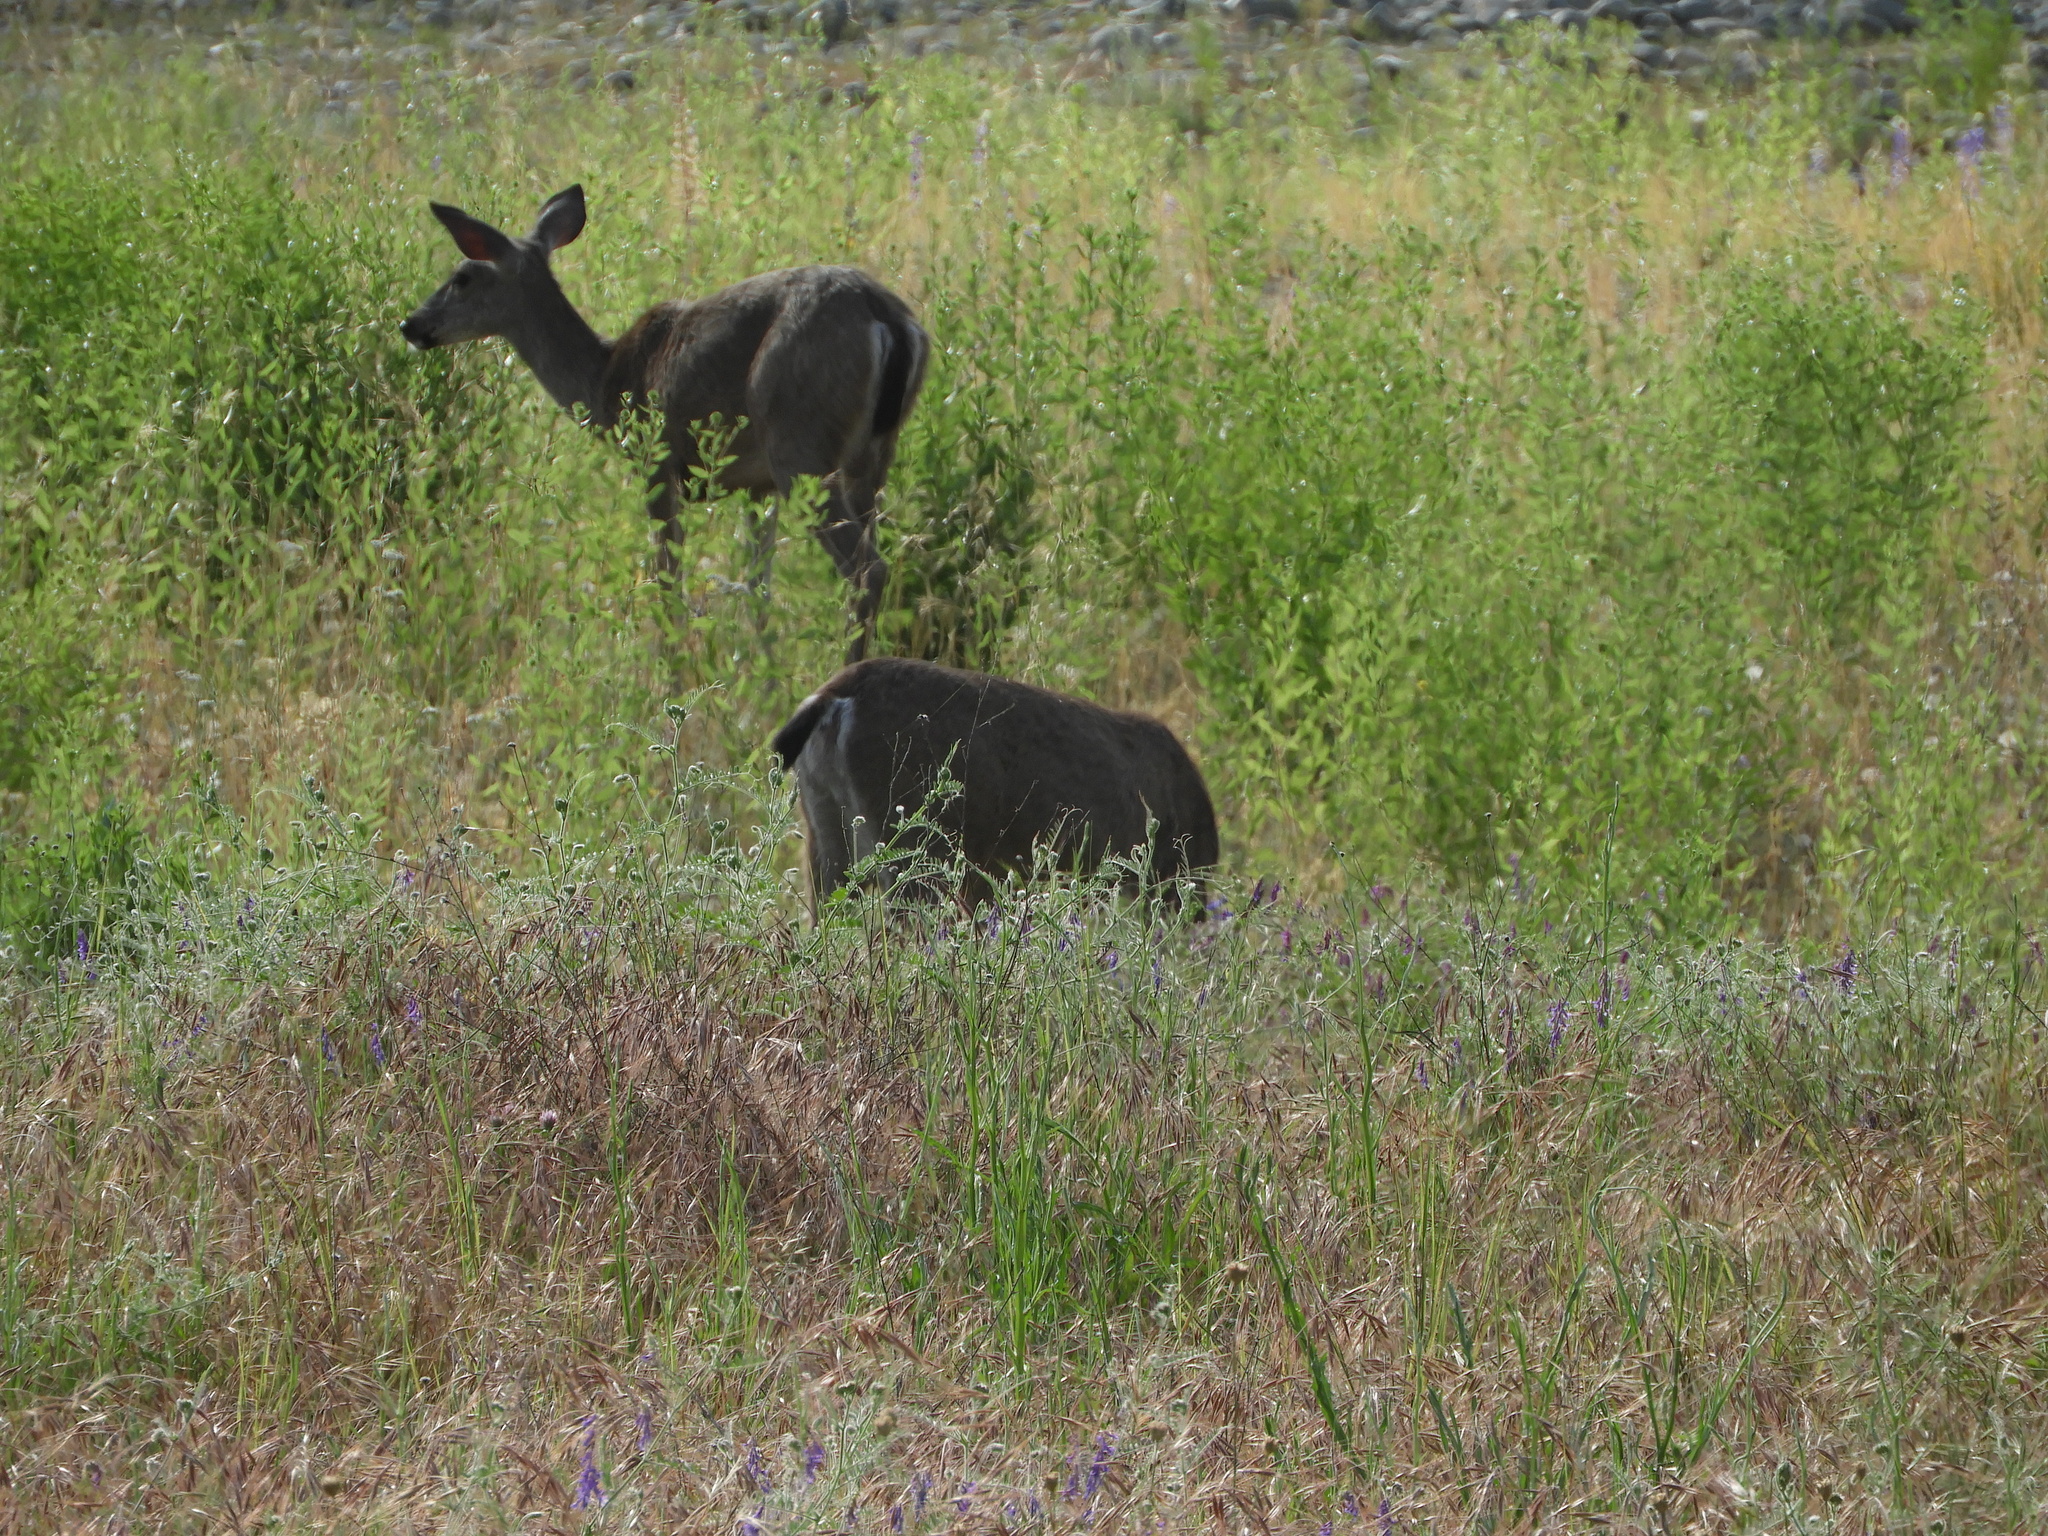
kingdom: Animalia
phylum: Chordata
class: Mammalia
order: Artiodactyla
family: Cervidae
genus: Odocoileus
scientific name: Odocoileus hemionus
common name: Mule deer
